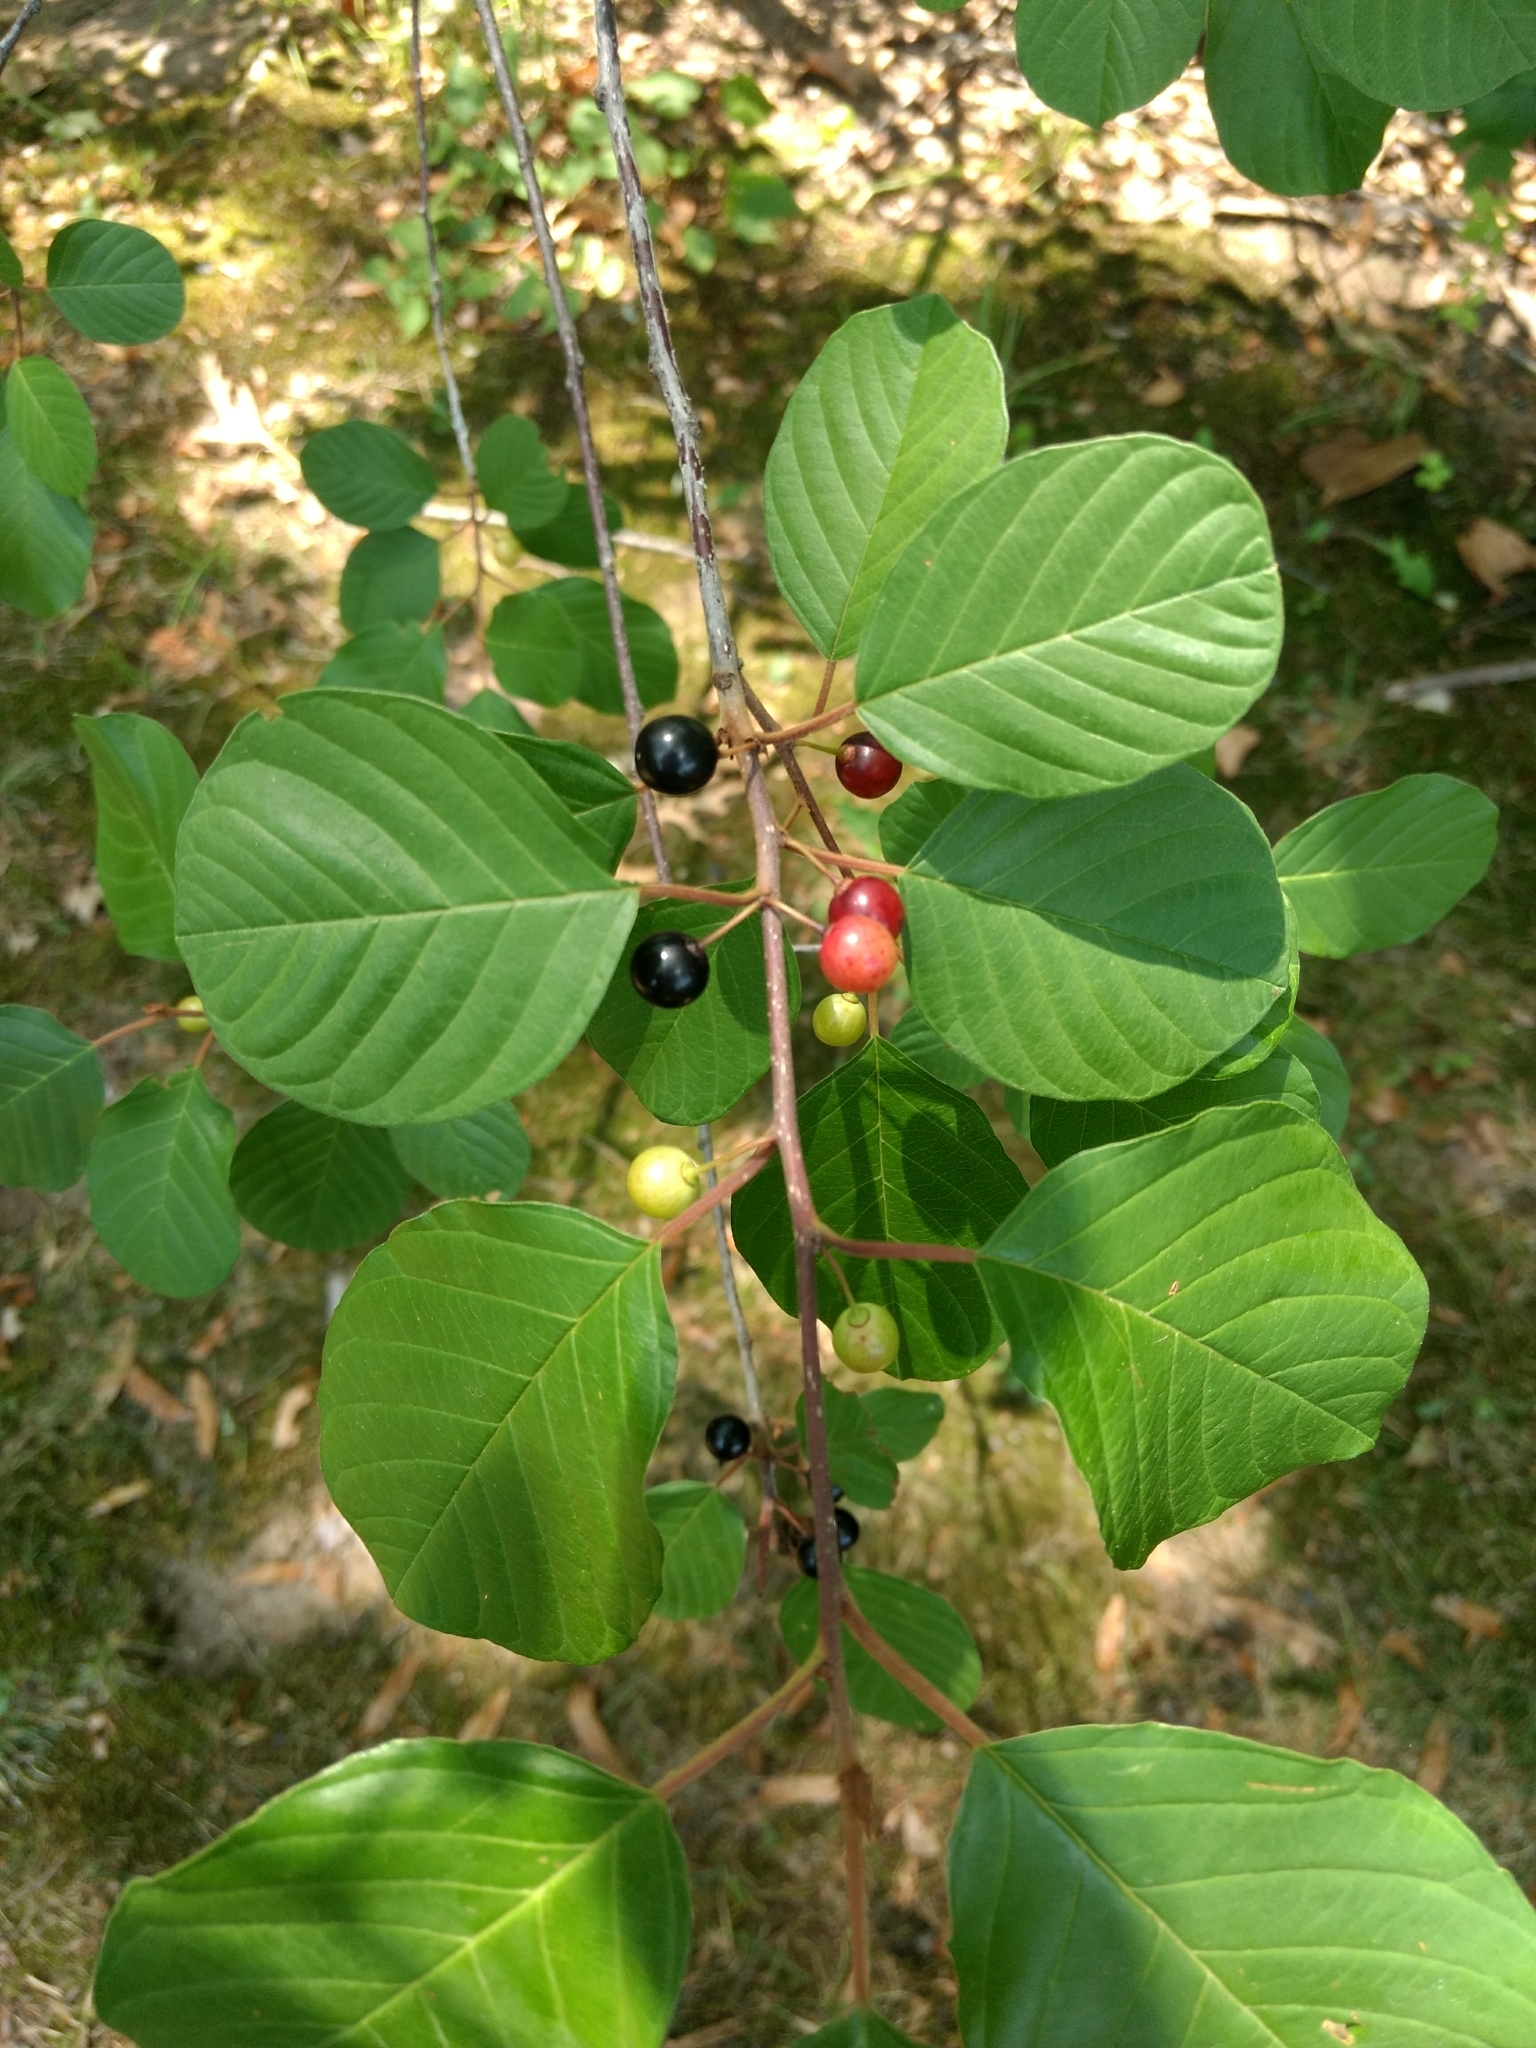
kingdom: Plantae
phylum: Tracheophyta
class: Magnoliopsida
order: Rosales
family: Rhamnaceae
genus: Frangula
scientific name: Frangula alnus
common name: Alder buckthorn
